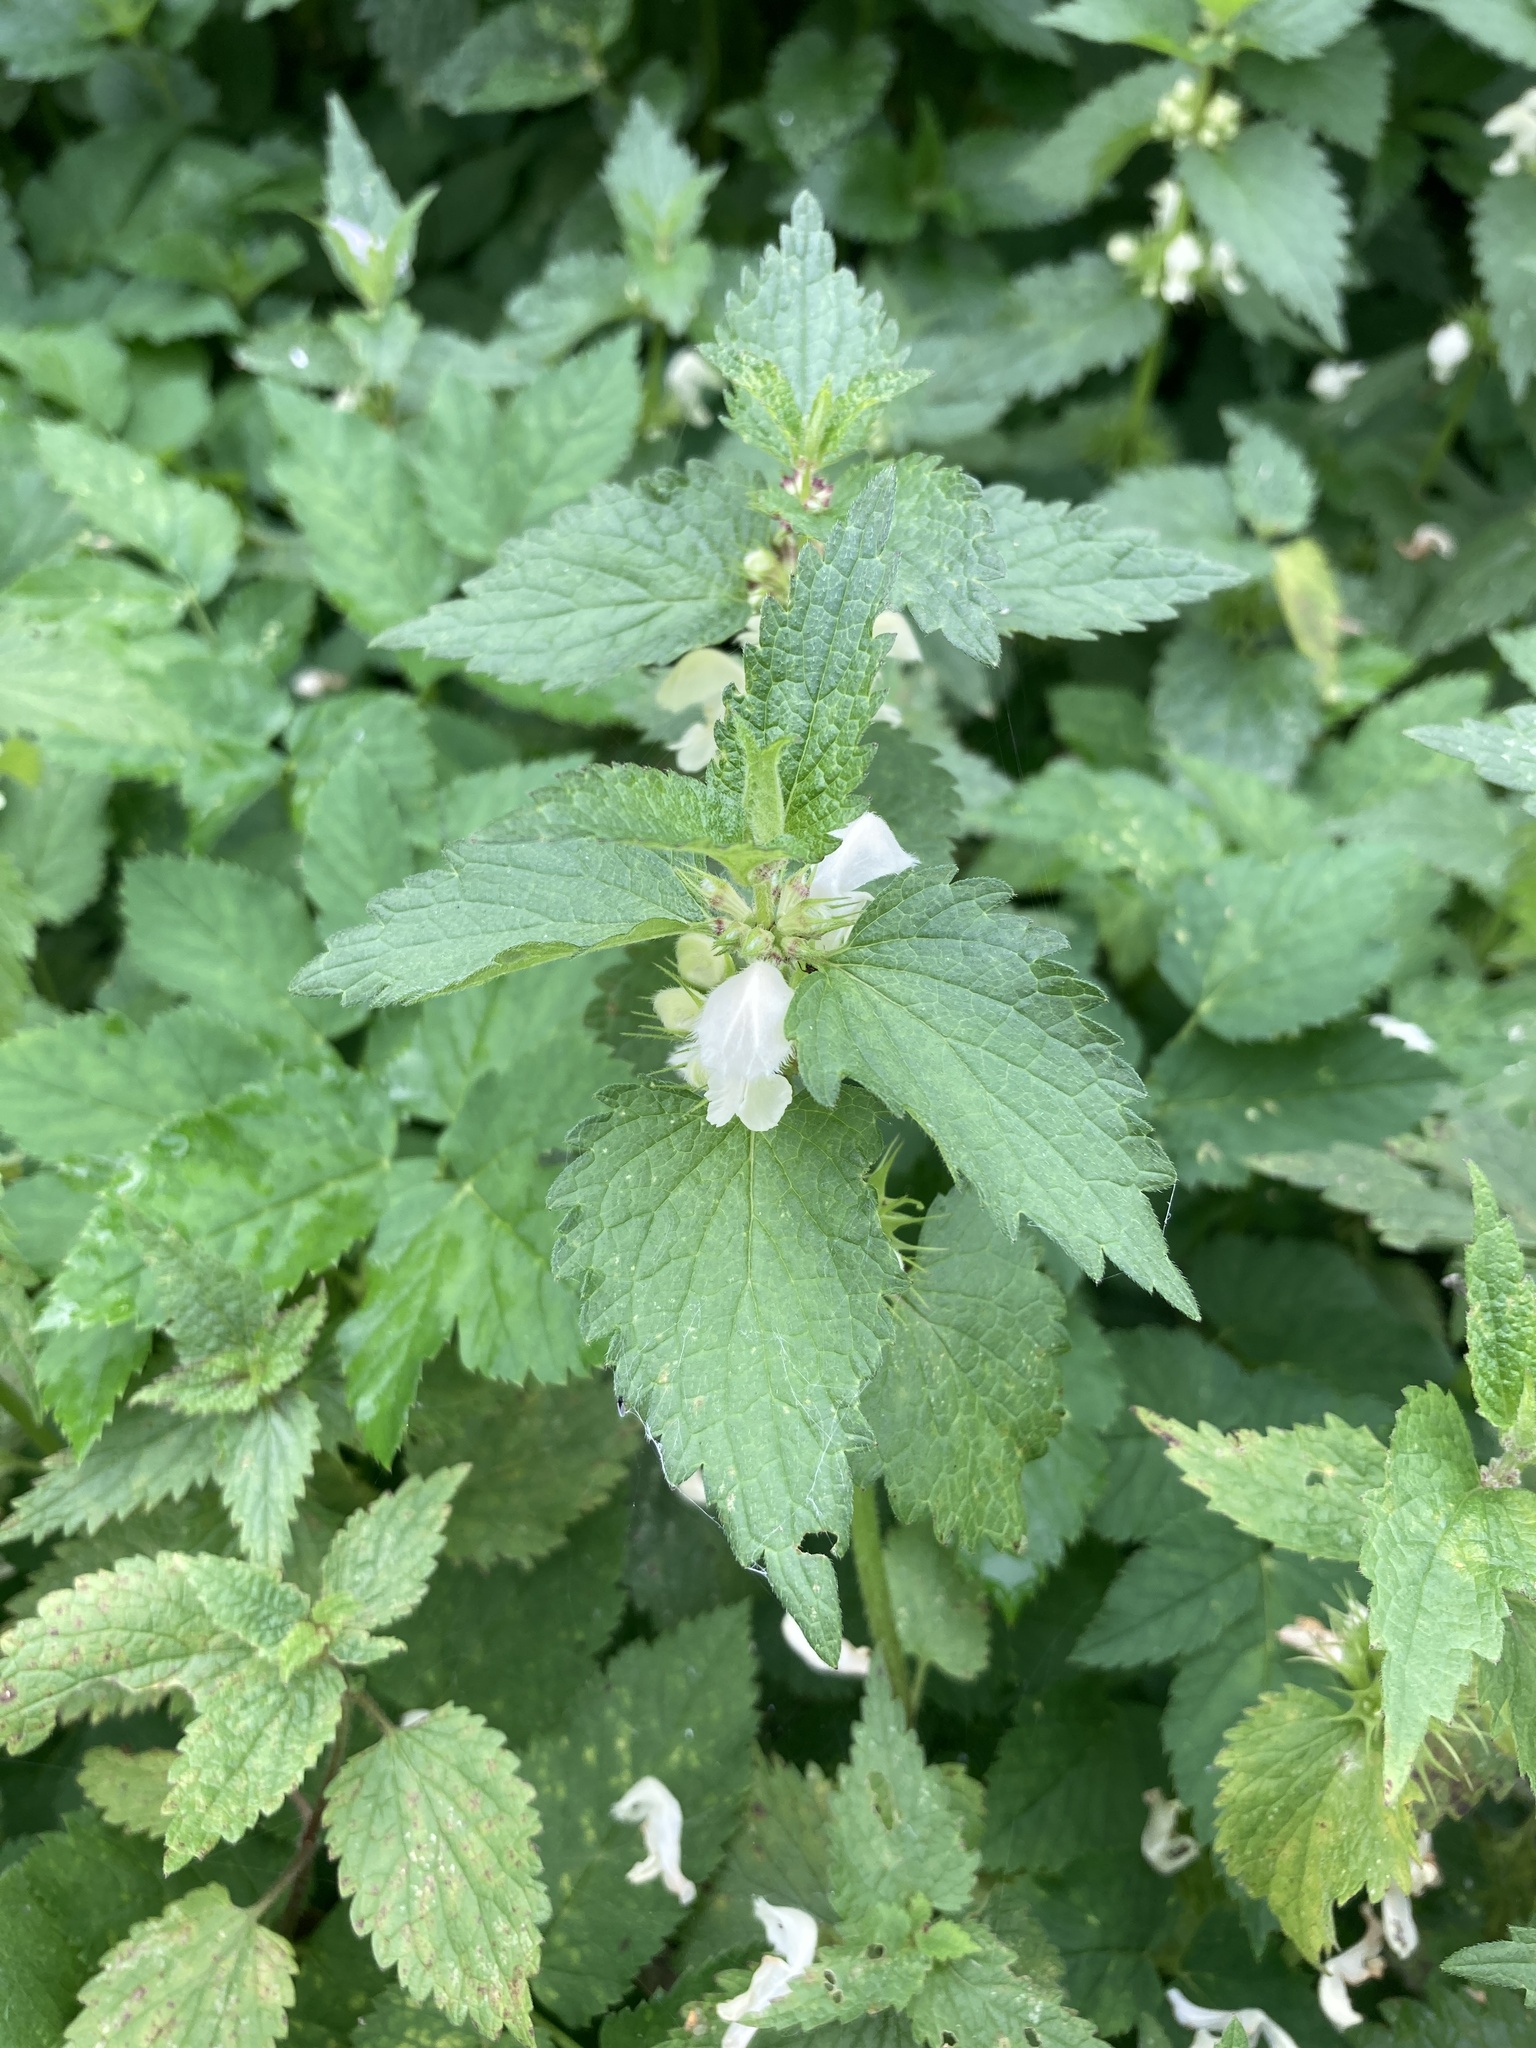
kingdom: Plantae
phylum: Tracheophyta
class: Magnoliopsida
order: Lamiales
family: Lamiaceae
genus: Lamium
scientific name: Lamium album
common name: White dead-nettle
